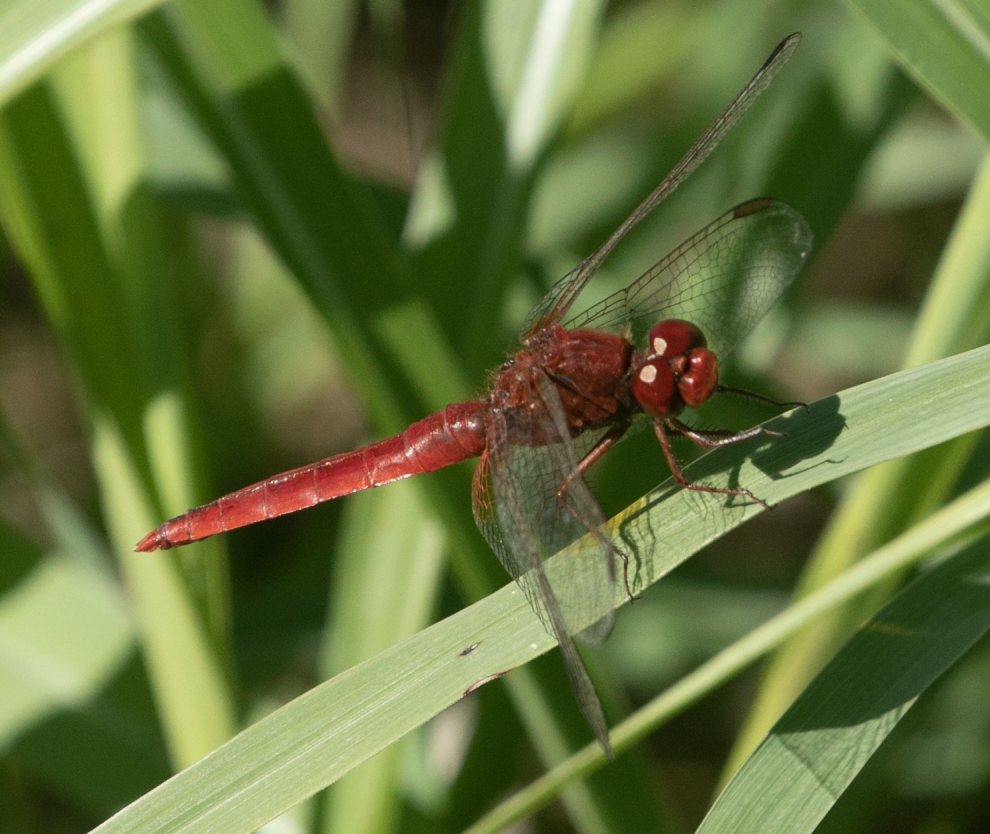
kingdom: Animalia
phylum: Arthropoda
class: Insecta
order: Odonata
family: Libellulidae
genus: Crocothemis
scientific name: Crocothemis erythraea
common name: Scarlet dragonfly
